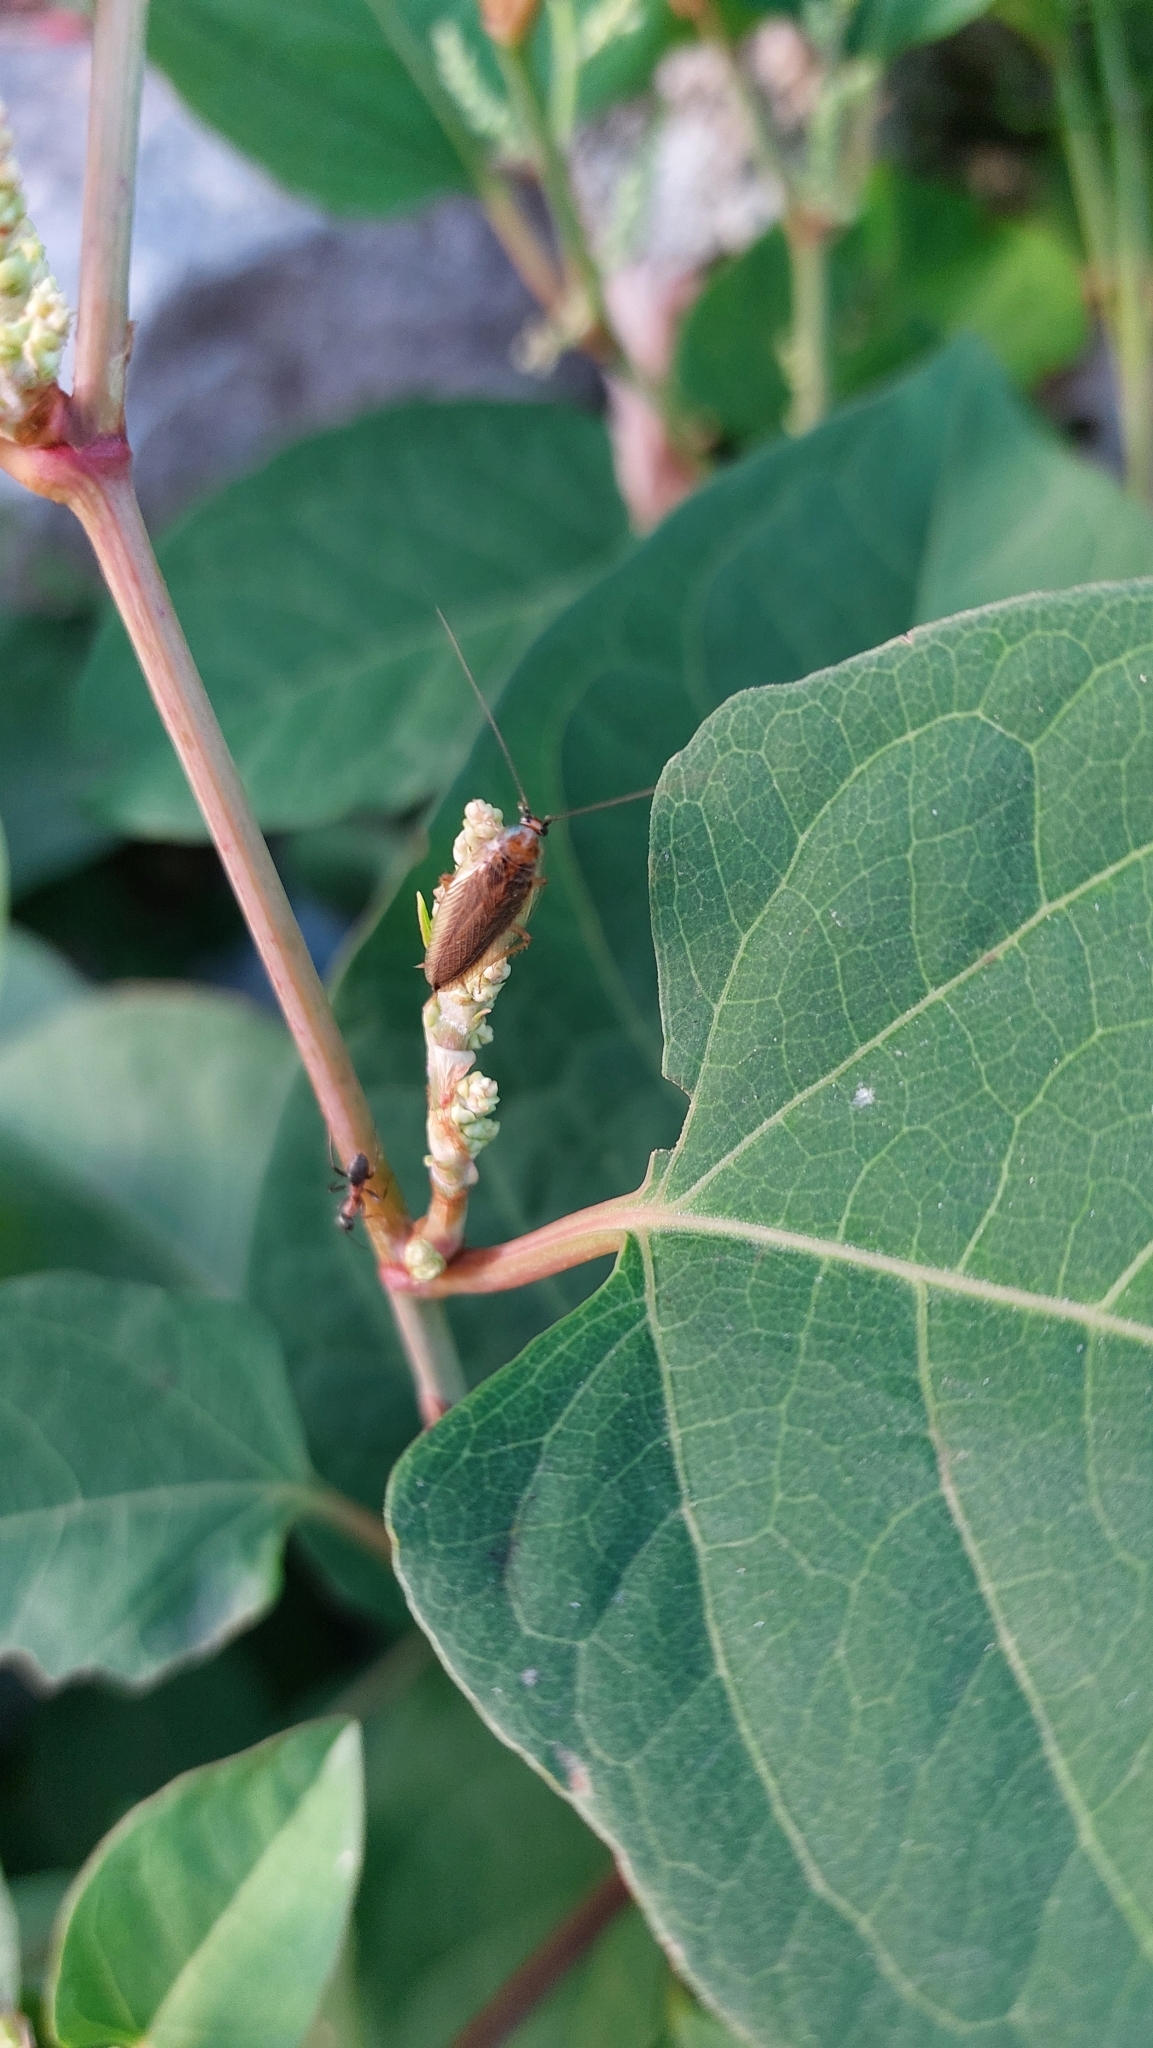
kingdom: Animalia
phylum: Arthropoda
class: Insecta
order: Blattodea
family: Ectobiidae
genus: Ectobius
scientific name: Ectobius vittiventris
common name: Garden cockroach
